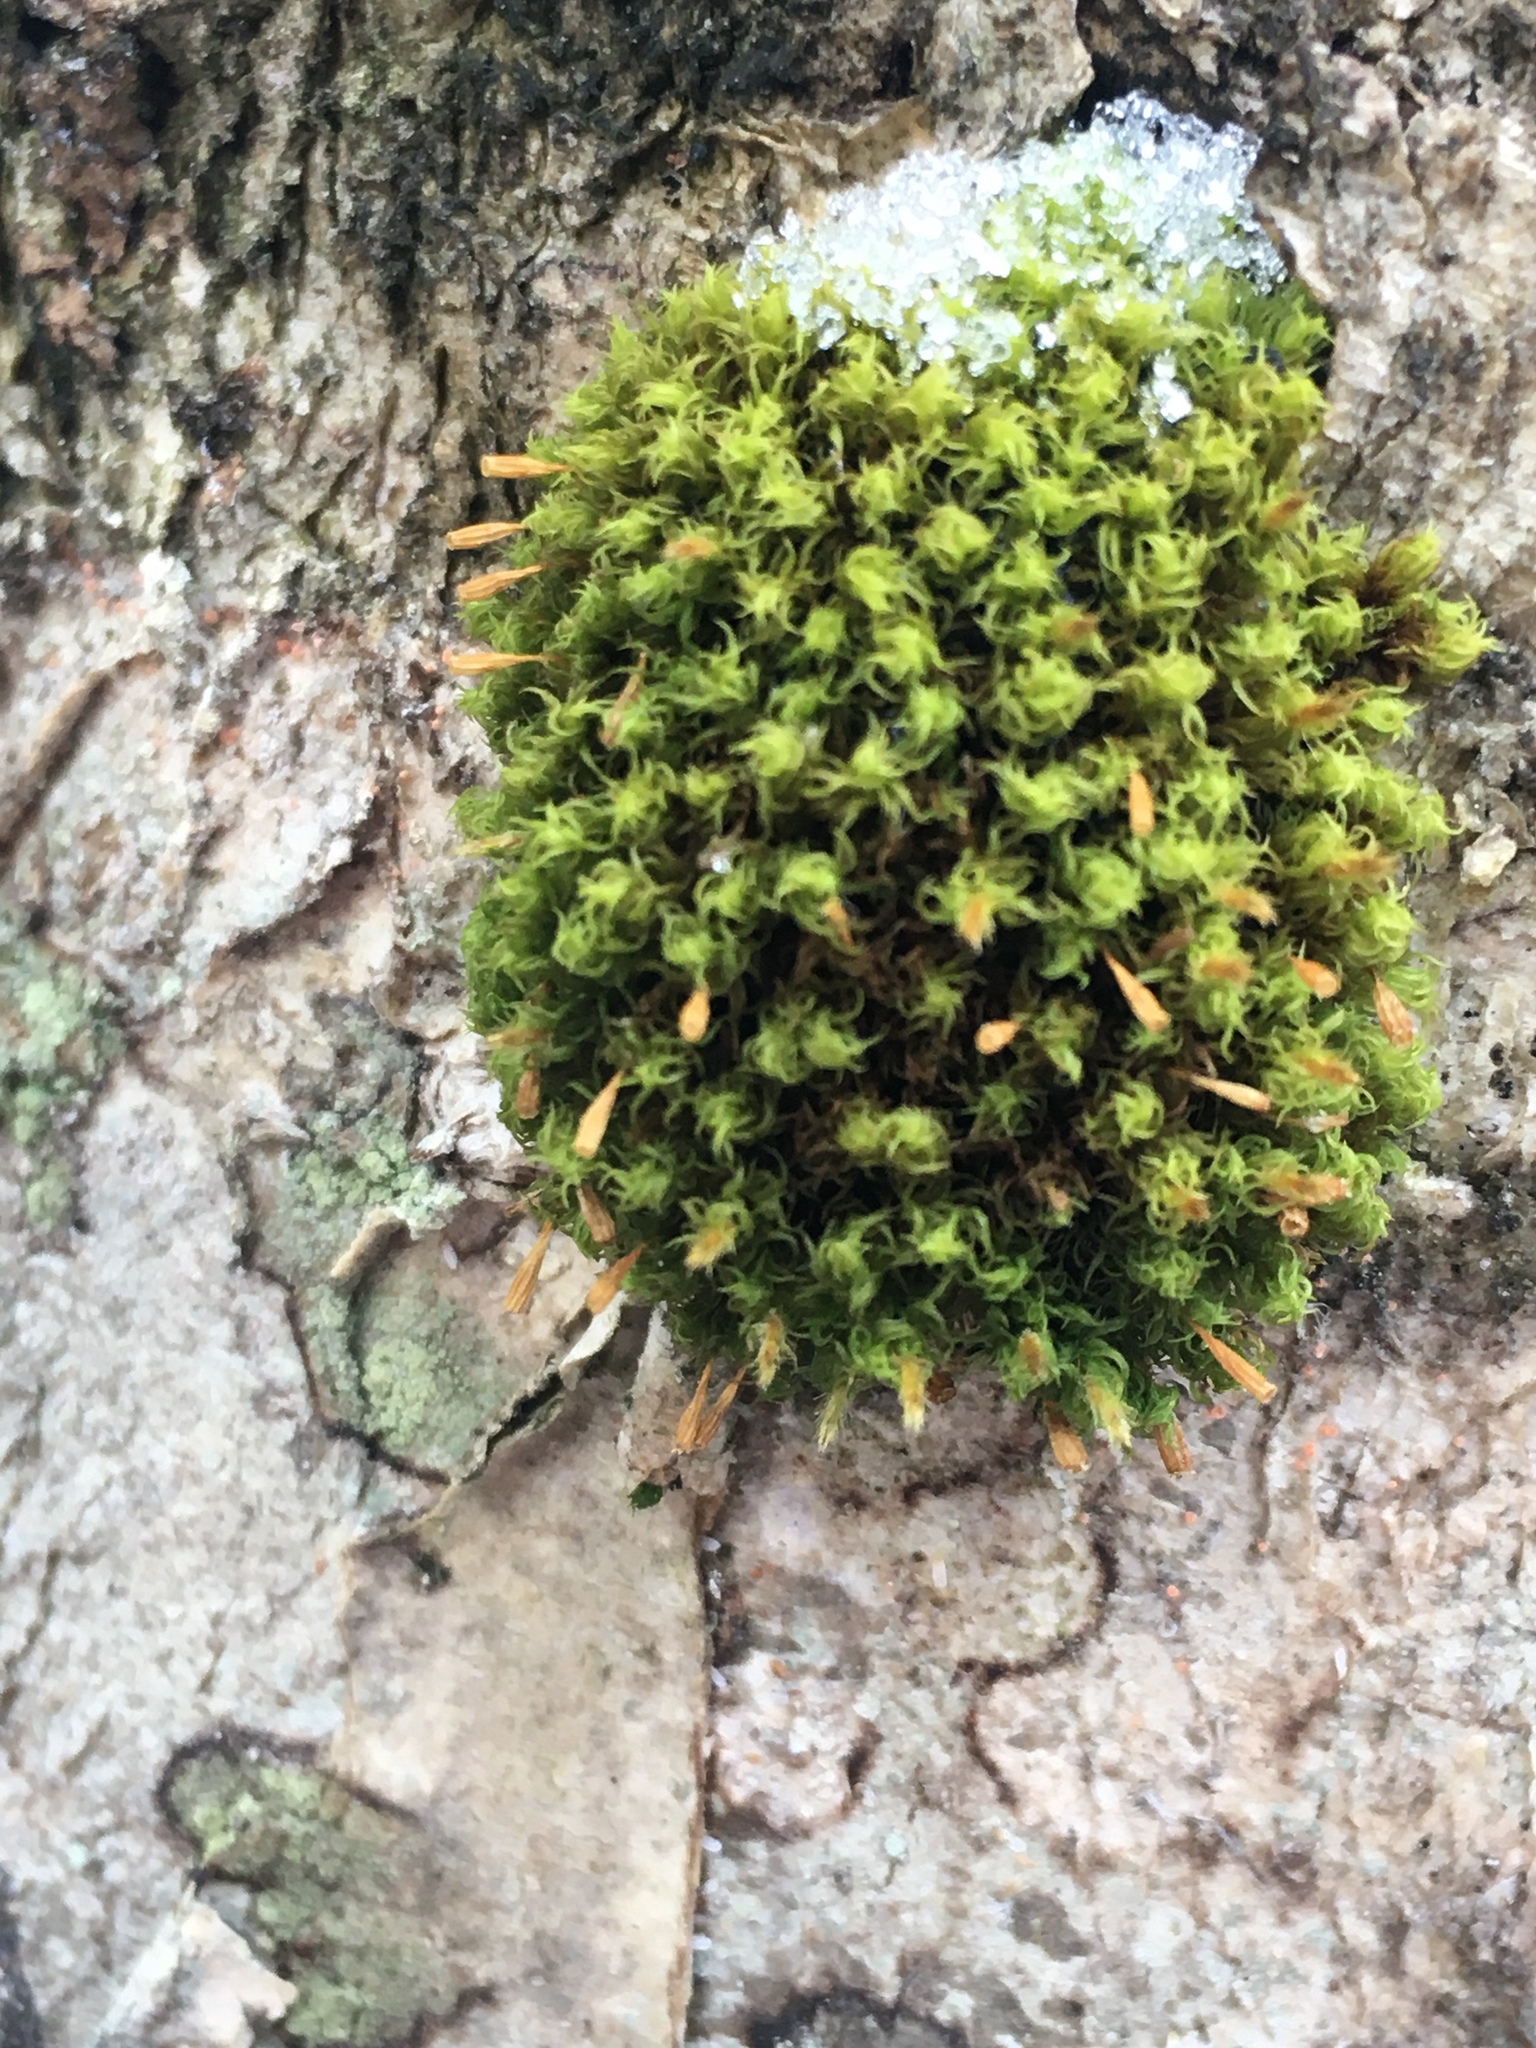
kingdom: Plantae
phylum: Bryophyta
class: Bryopsida
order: Orthotrichales
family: Orthotrichaceae
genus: Ulota
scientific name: Ulota crispa
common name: Crisped pincushion moss
